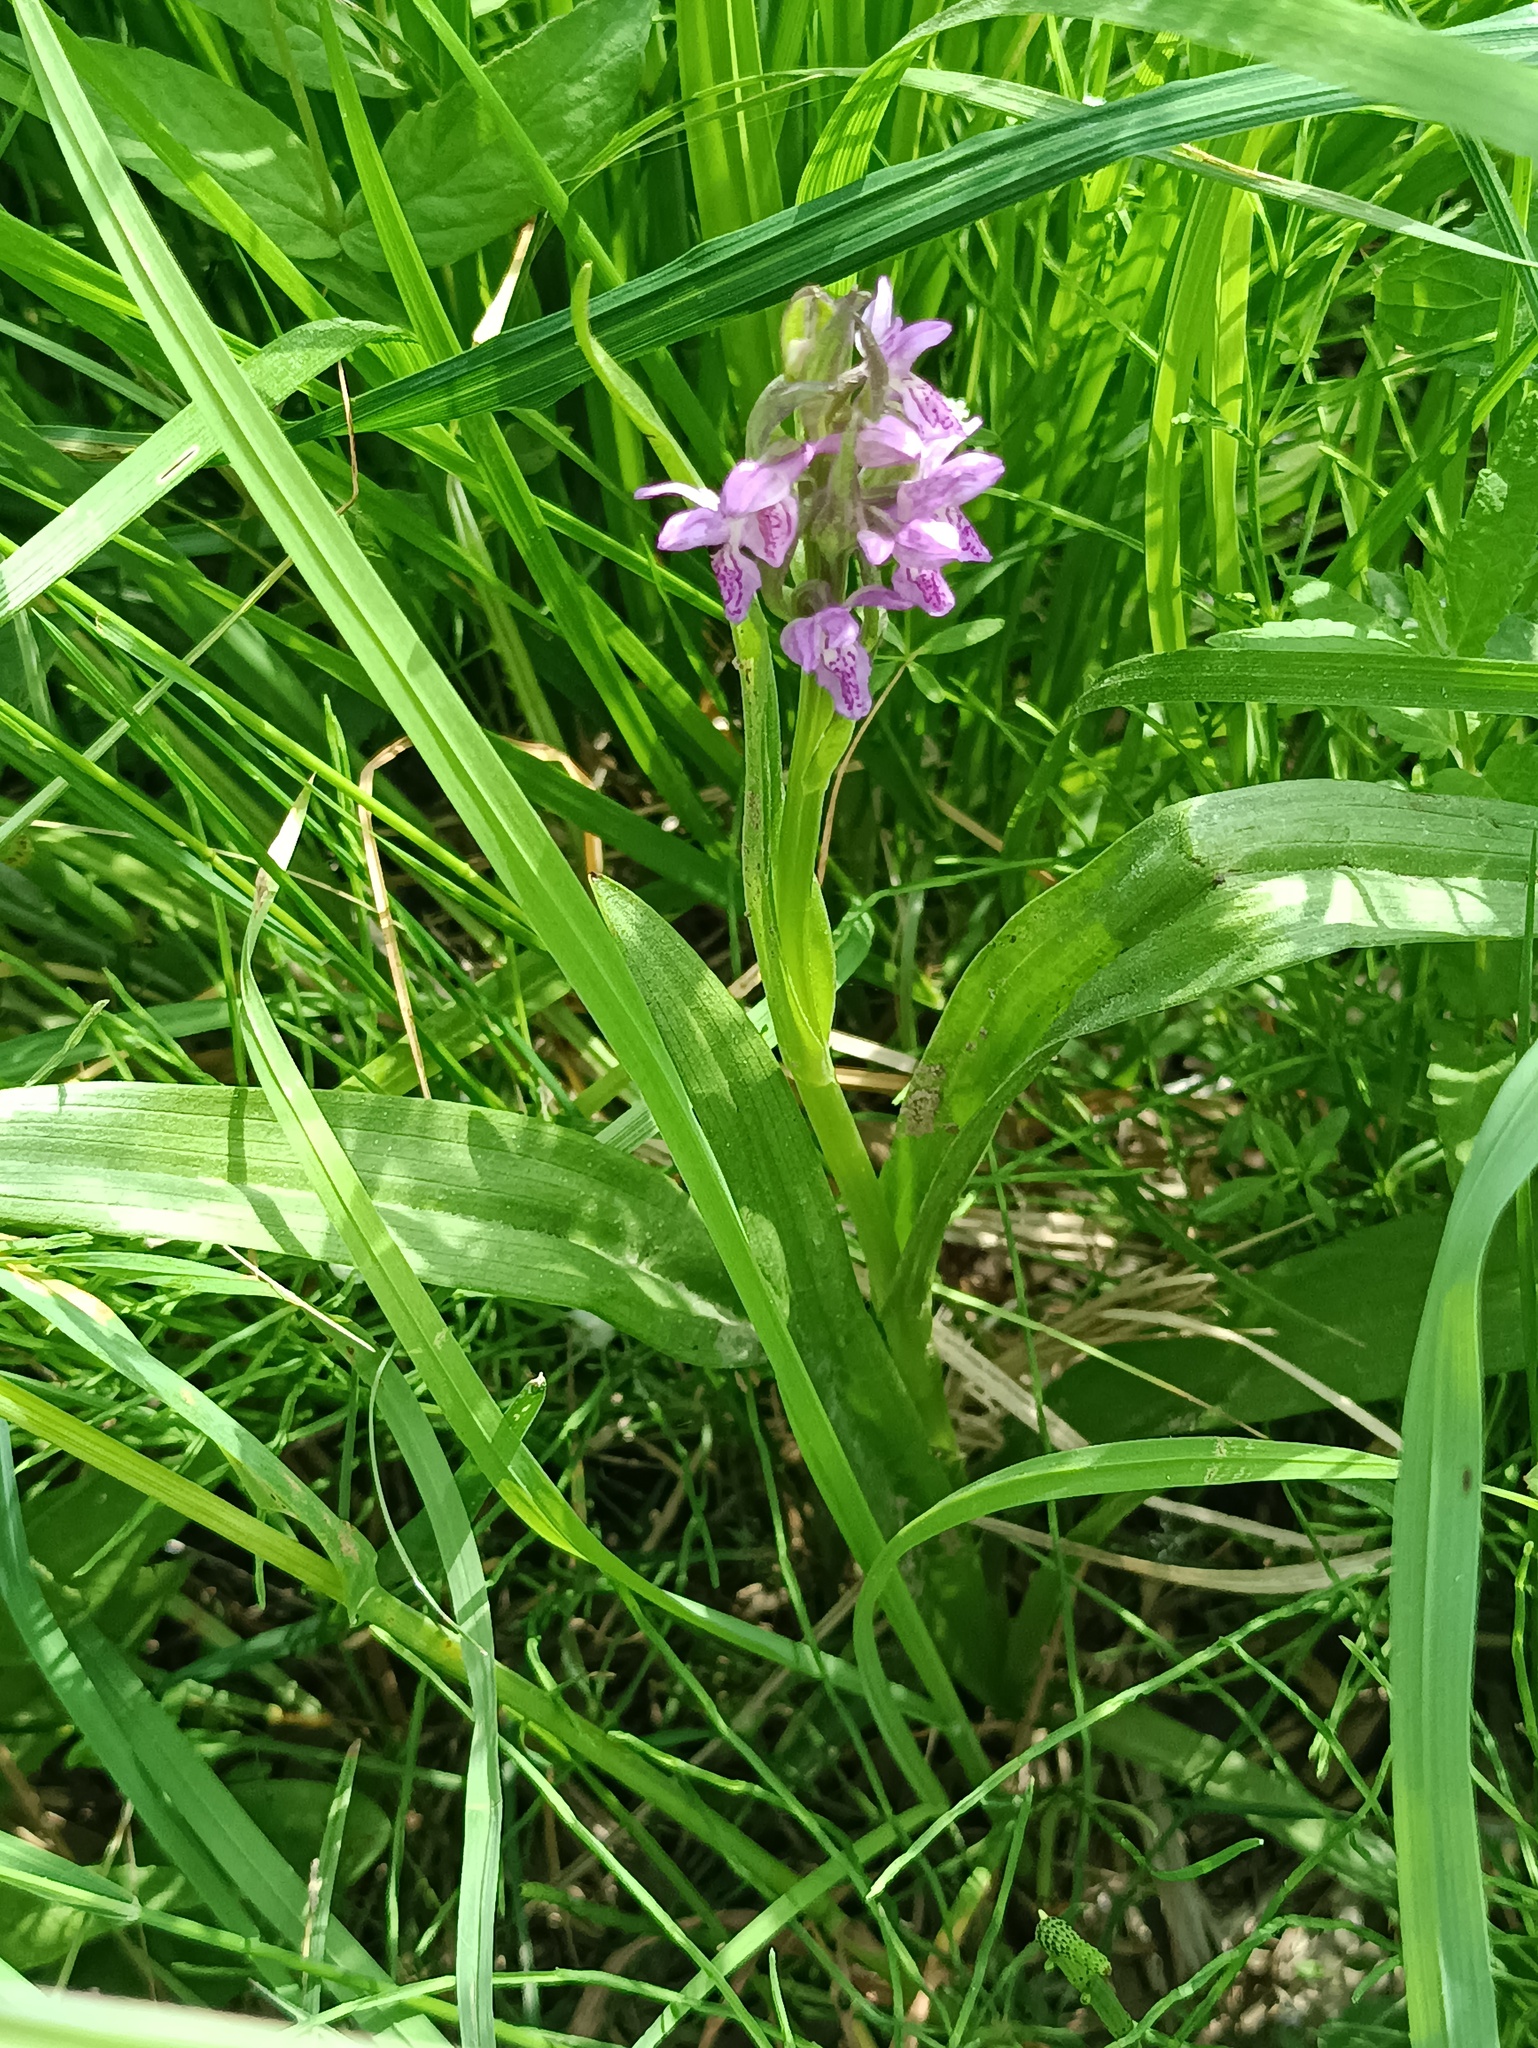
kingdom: Plantae
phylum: Tracheophyta
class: Liliopsida
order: Asparagales
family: Orchidaceae
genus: Dactylorhiza
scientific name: Dactylorhiza incarnata
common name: Early marsh-orchid
